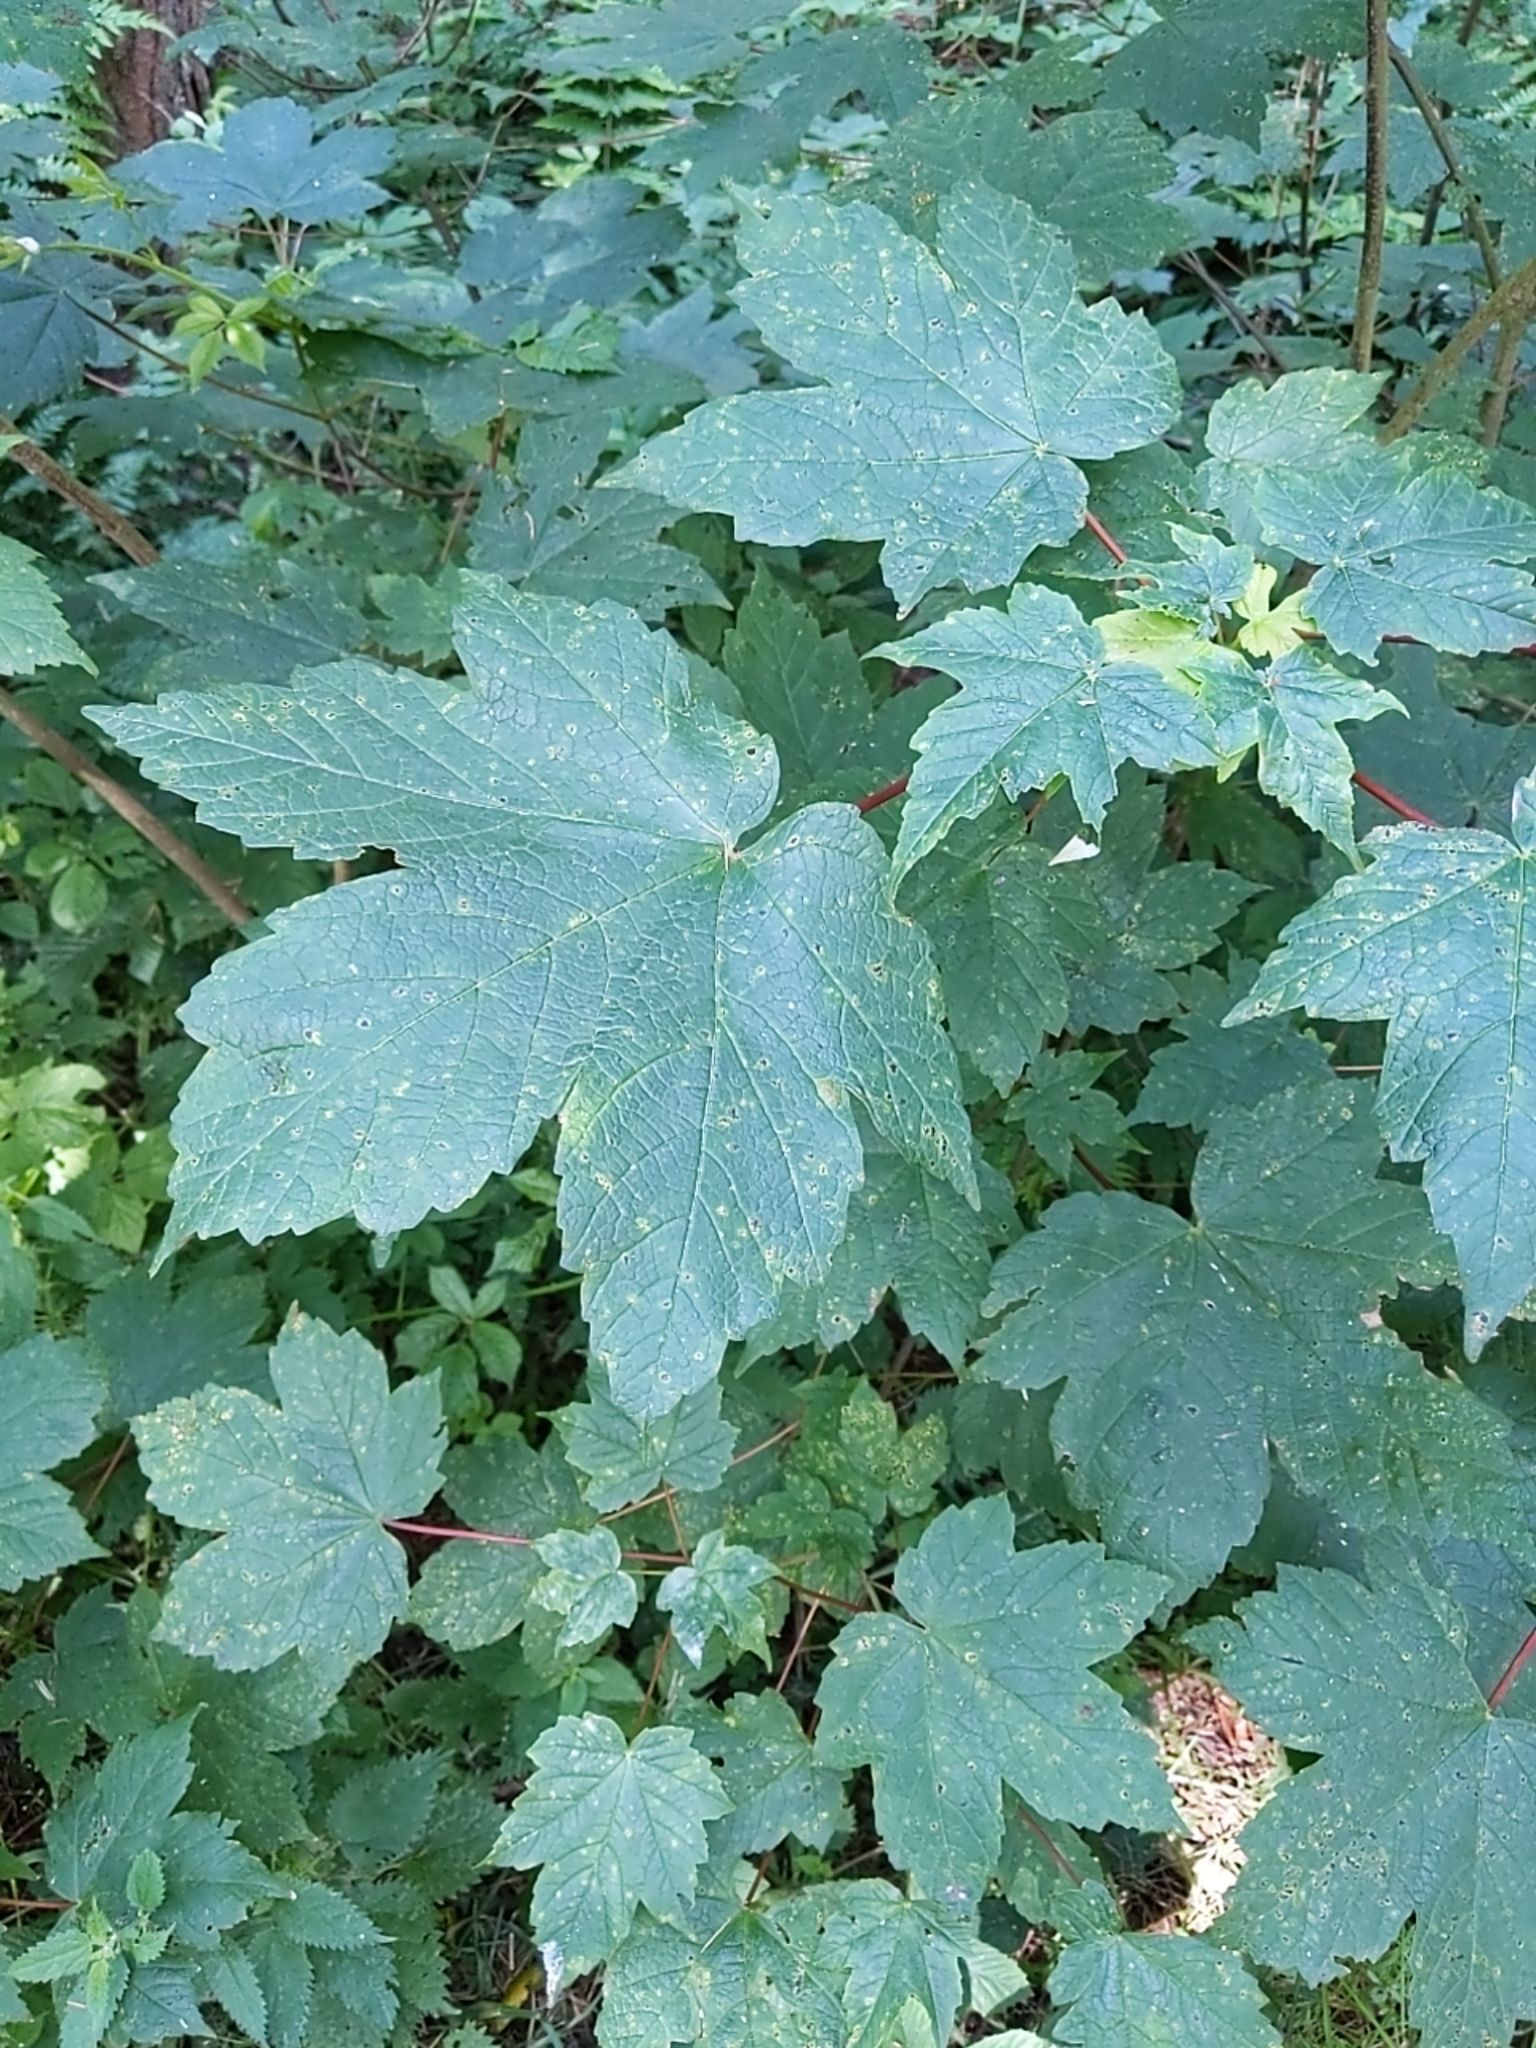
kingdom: Plantae
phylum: Tracheophyta
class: Magnoliopsida
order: Sapindales
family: Sapindaceae
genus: Acer
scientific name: Acer pseudoplatanus
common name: Sycamore
